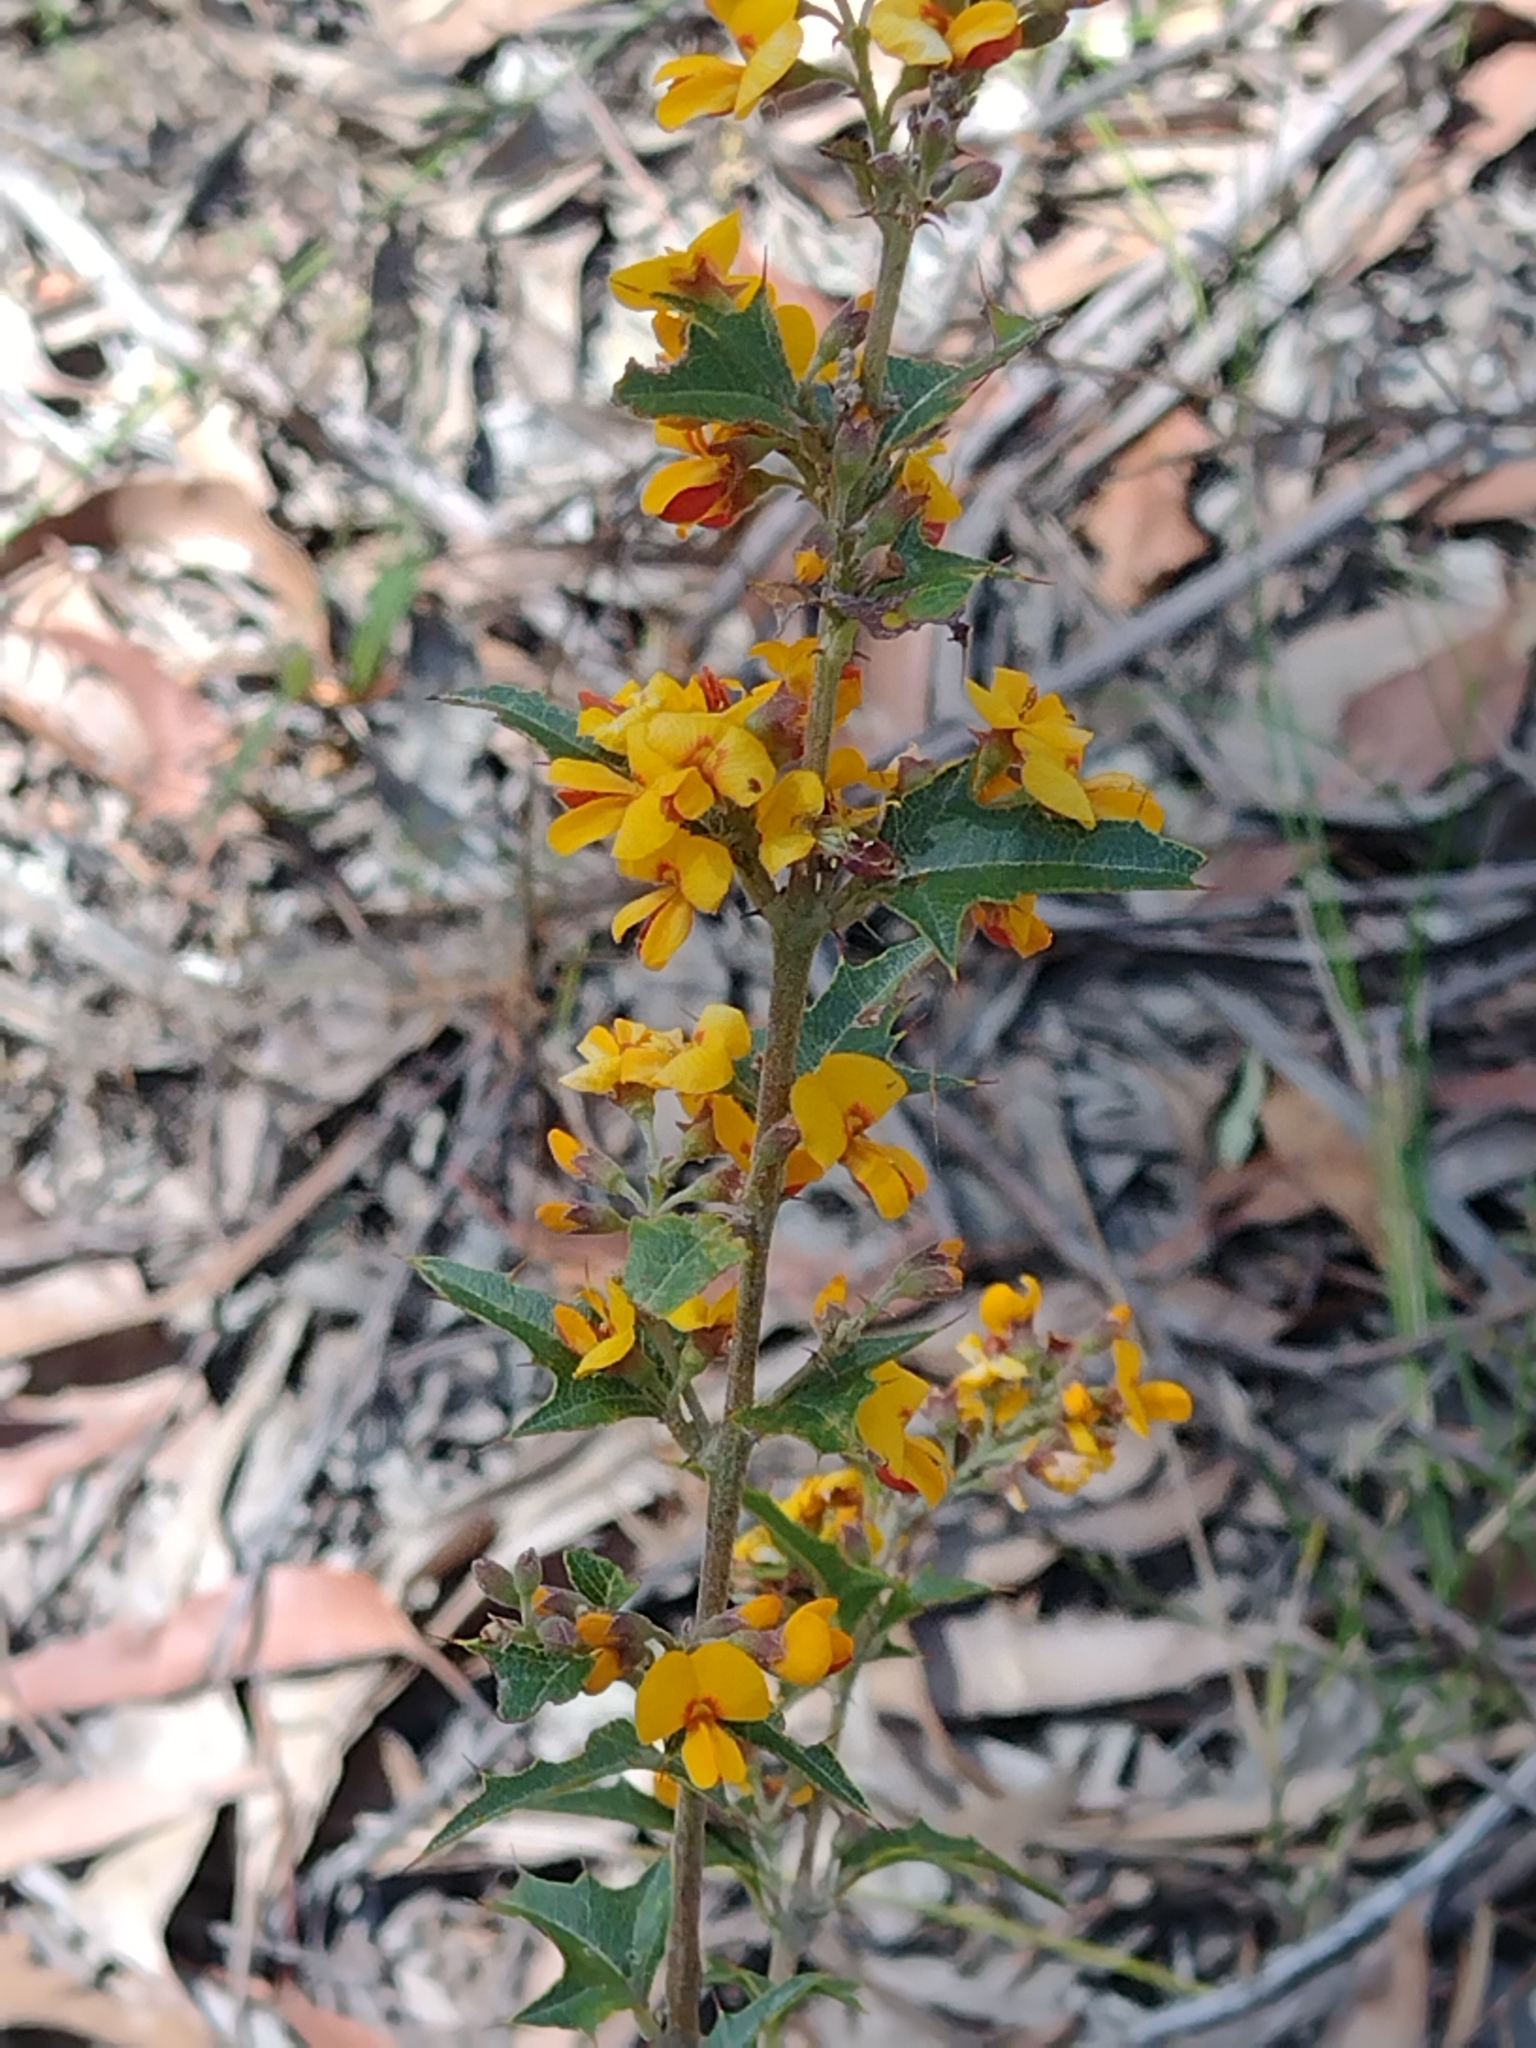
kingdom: Plantae
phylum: Tracheophyta
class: Magnoliopsida
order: Fabales
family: Fabaceae
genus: Podolobium
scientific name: Podolobium ilicifolium
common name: Native holly
